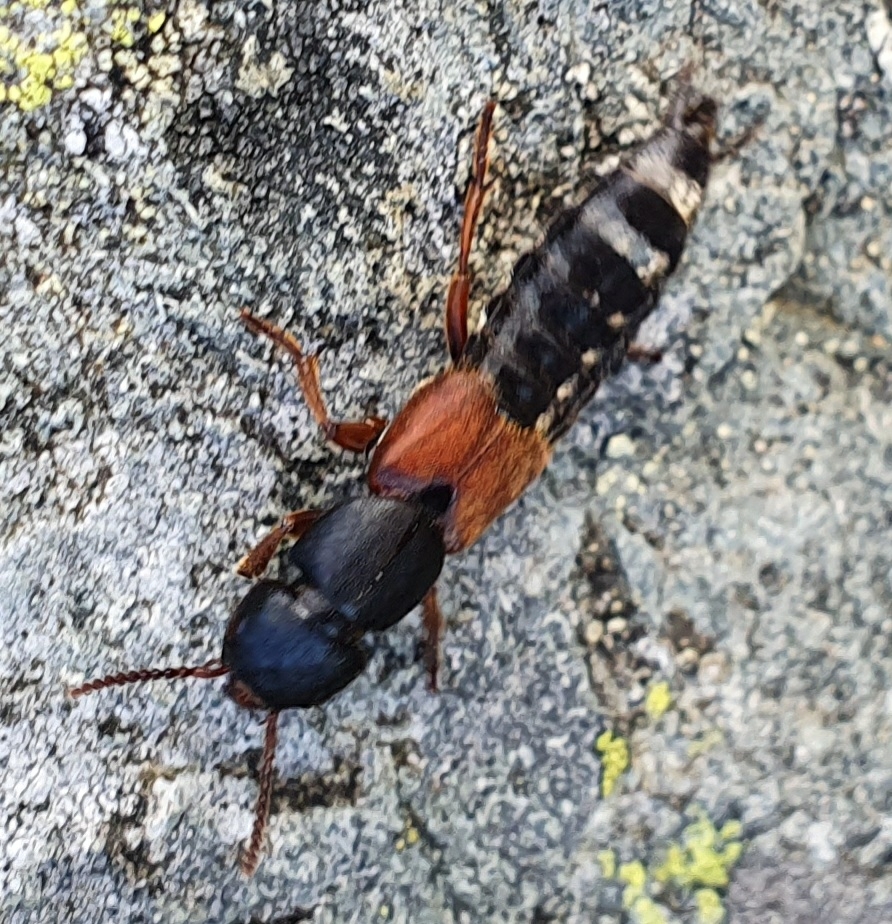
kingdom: Animalia
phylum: Arthropoda
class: Insecta
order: Coleoptera
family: Staphylinidae
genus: Platydracus
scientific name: Platydracus stercorarius
